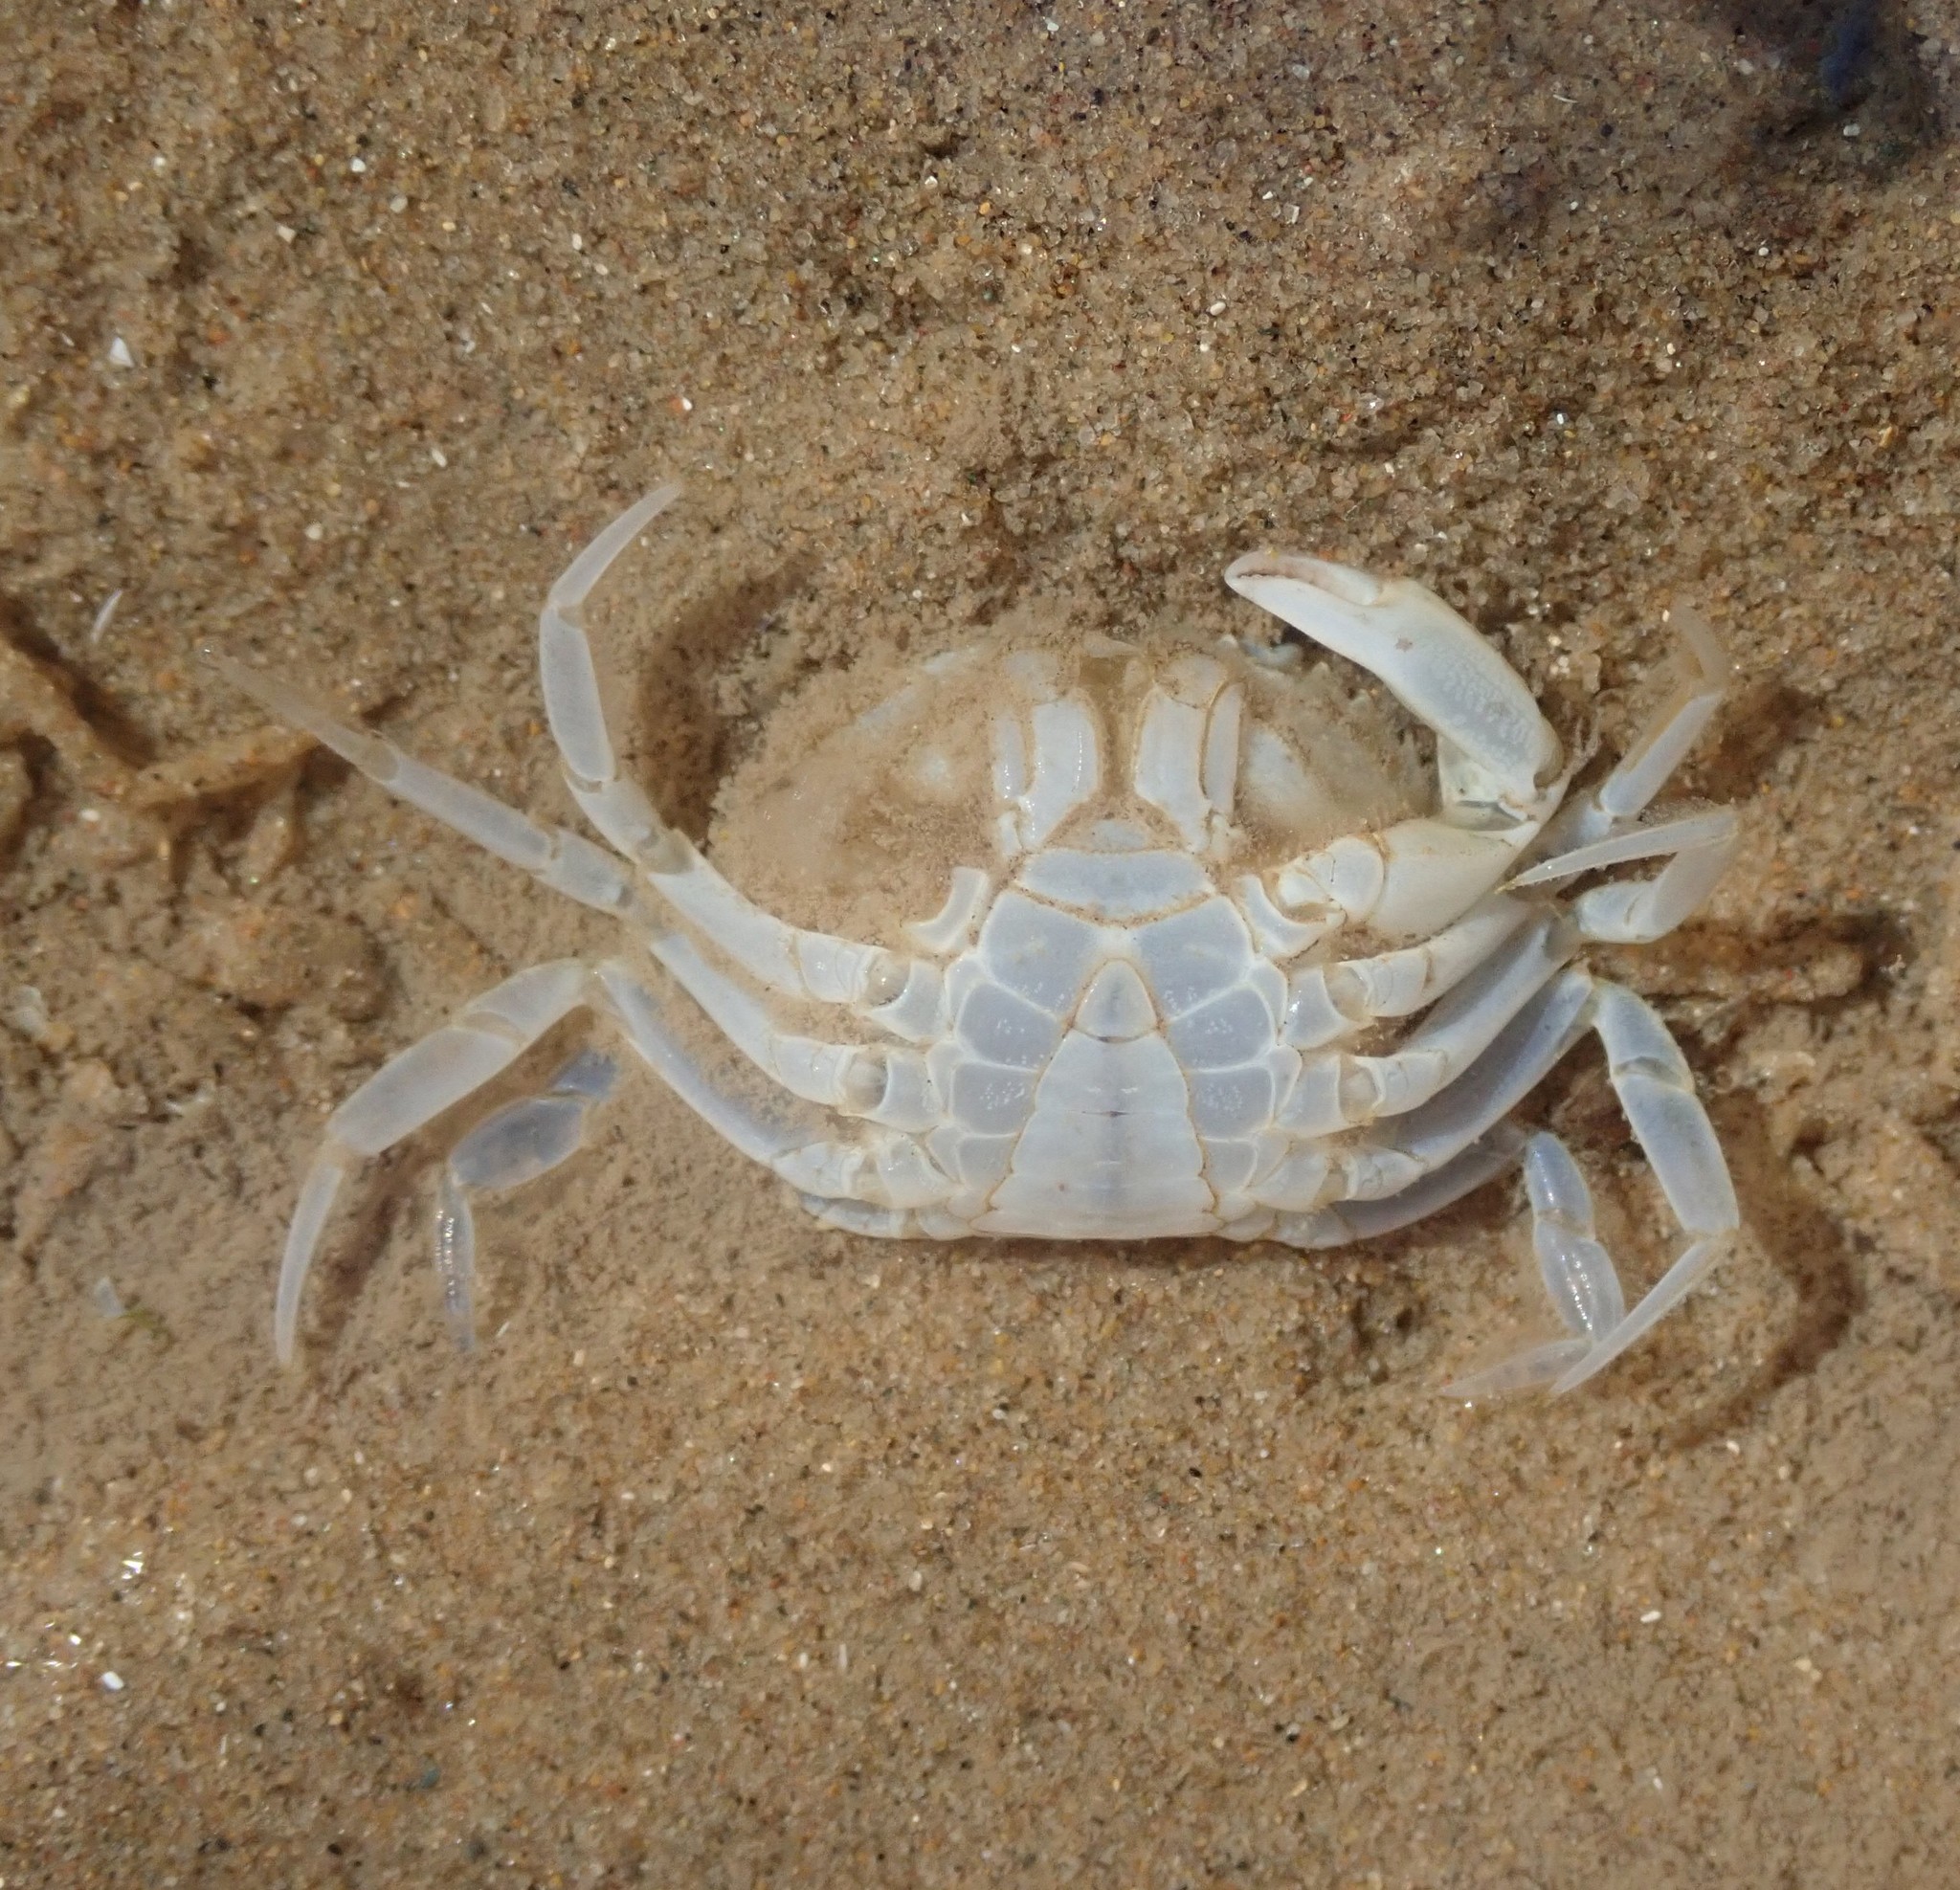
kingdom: Animalia
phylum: Arthropoda
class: Malacostraca
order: Decapoda
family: Carcinidae
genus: Carcinus
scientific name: Carcinus maenas
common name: European green crab
